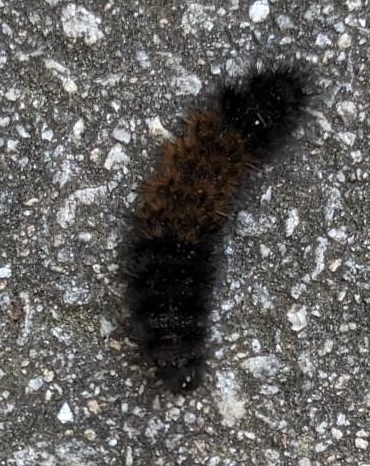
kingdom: Animalia
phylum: Arthropoda
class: Insecta
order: Lepidoptera
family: Erebidae
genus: Pyrrharctia
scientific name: Pyrrharctia isabella
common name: Isabella tiger moth
